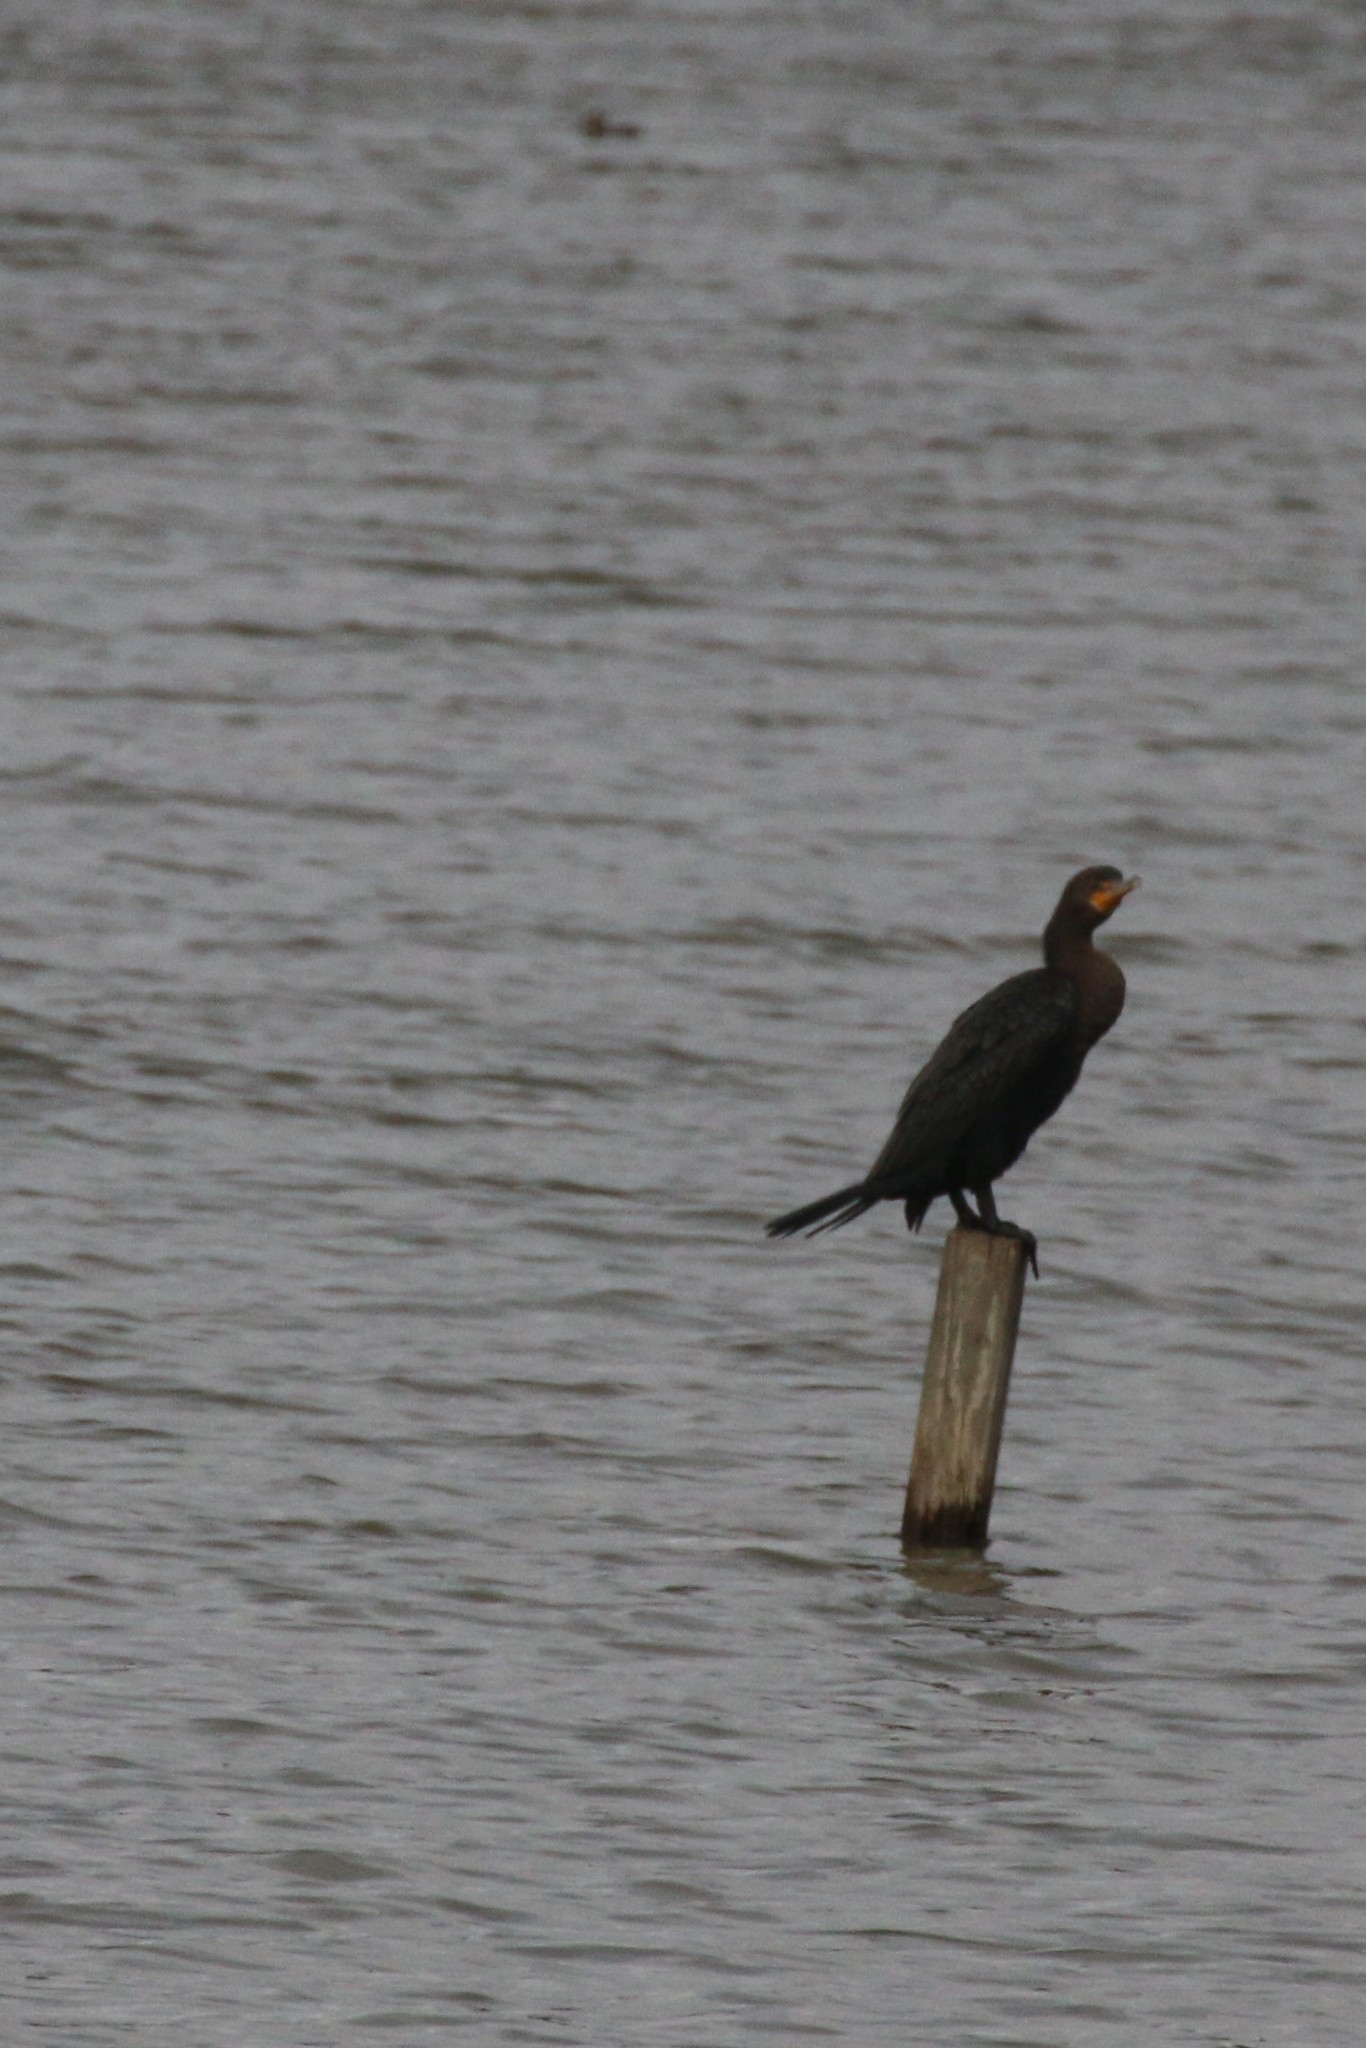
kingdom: Animalia
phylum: Chordata
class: Aves
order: Suliformes
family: Phalacrocoracidae
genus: Phalacrocorax
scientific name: Phalacrocorax auritus
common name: Double-crested cormorant
